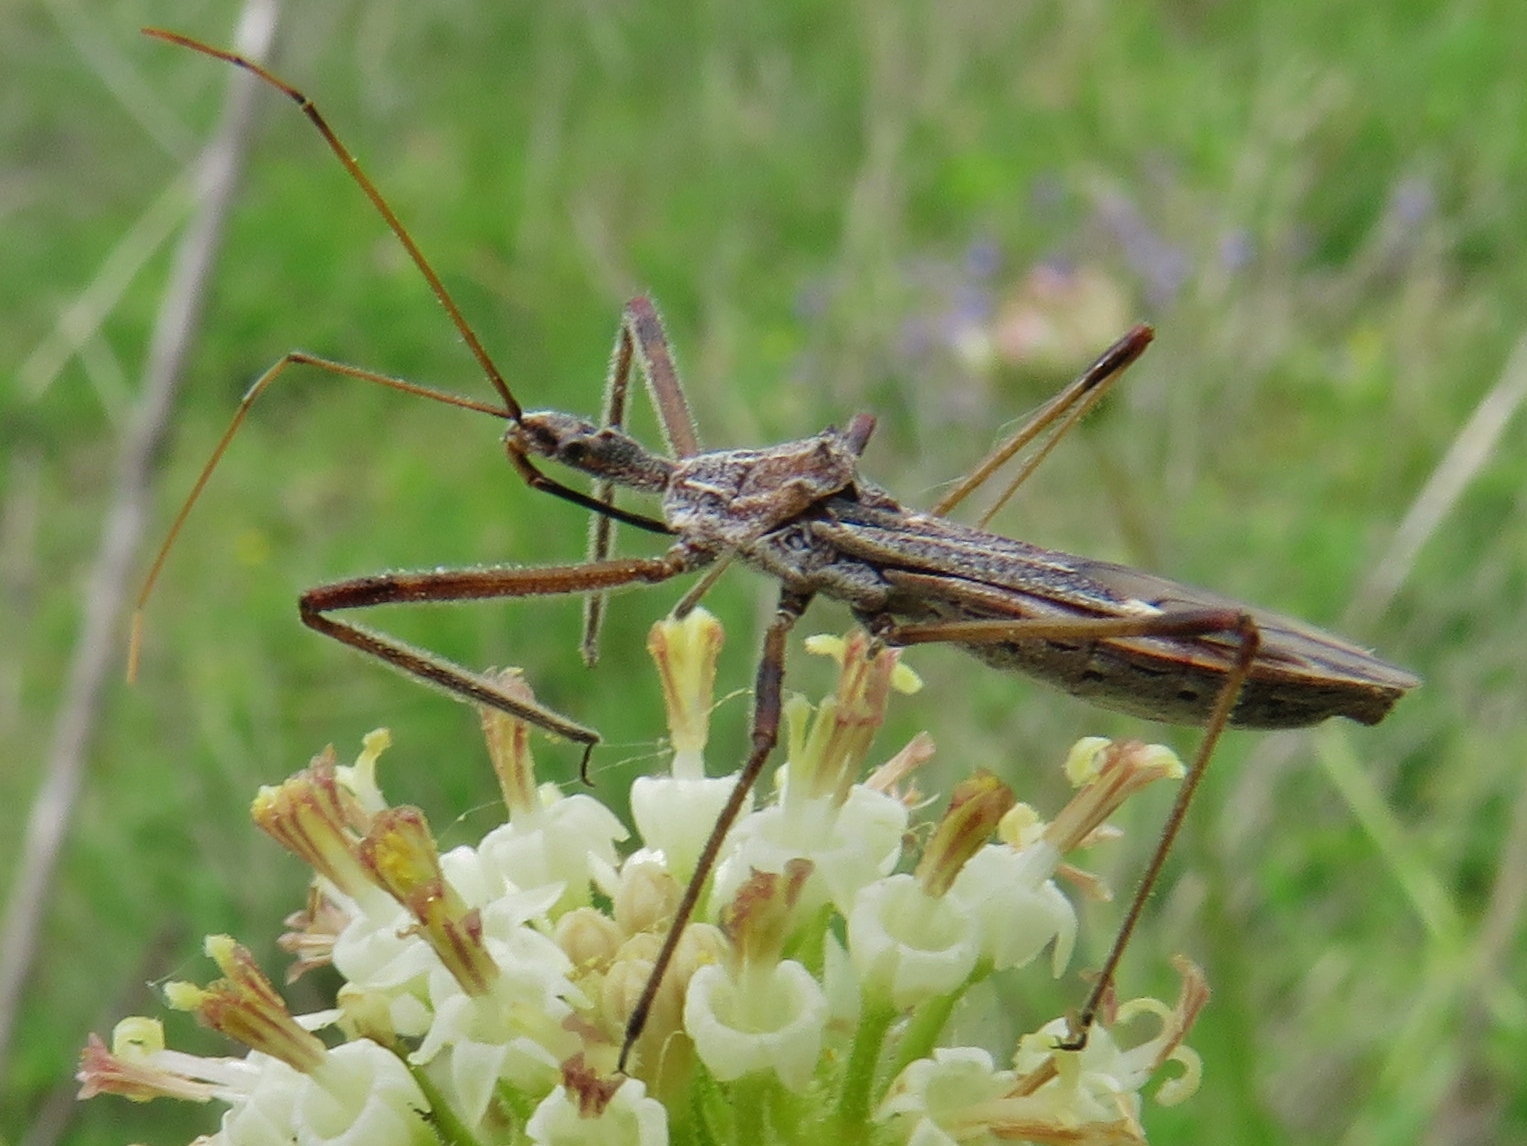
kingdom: Animalia
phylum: Arthropoda
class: Insecta
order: Hemiptera
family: Reduviidae
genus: Zelus
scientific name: Zelus tetracanthus
